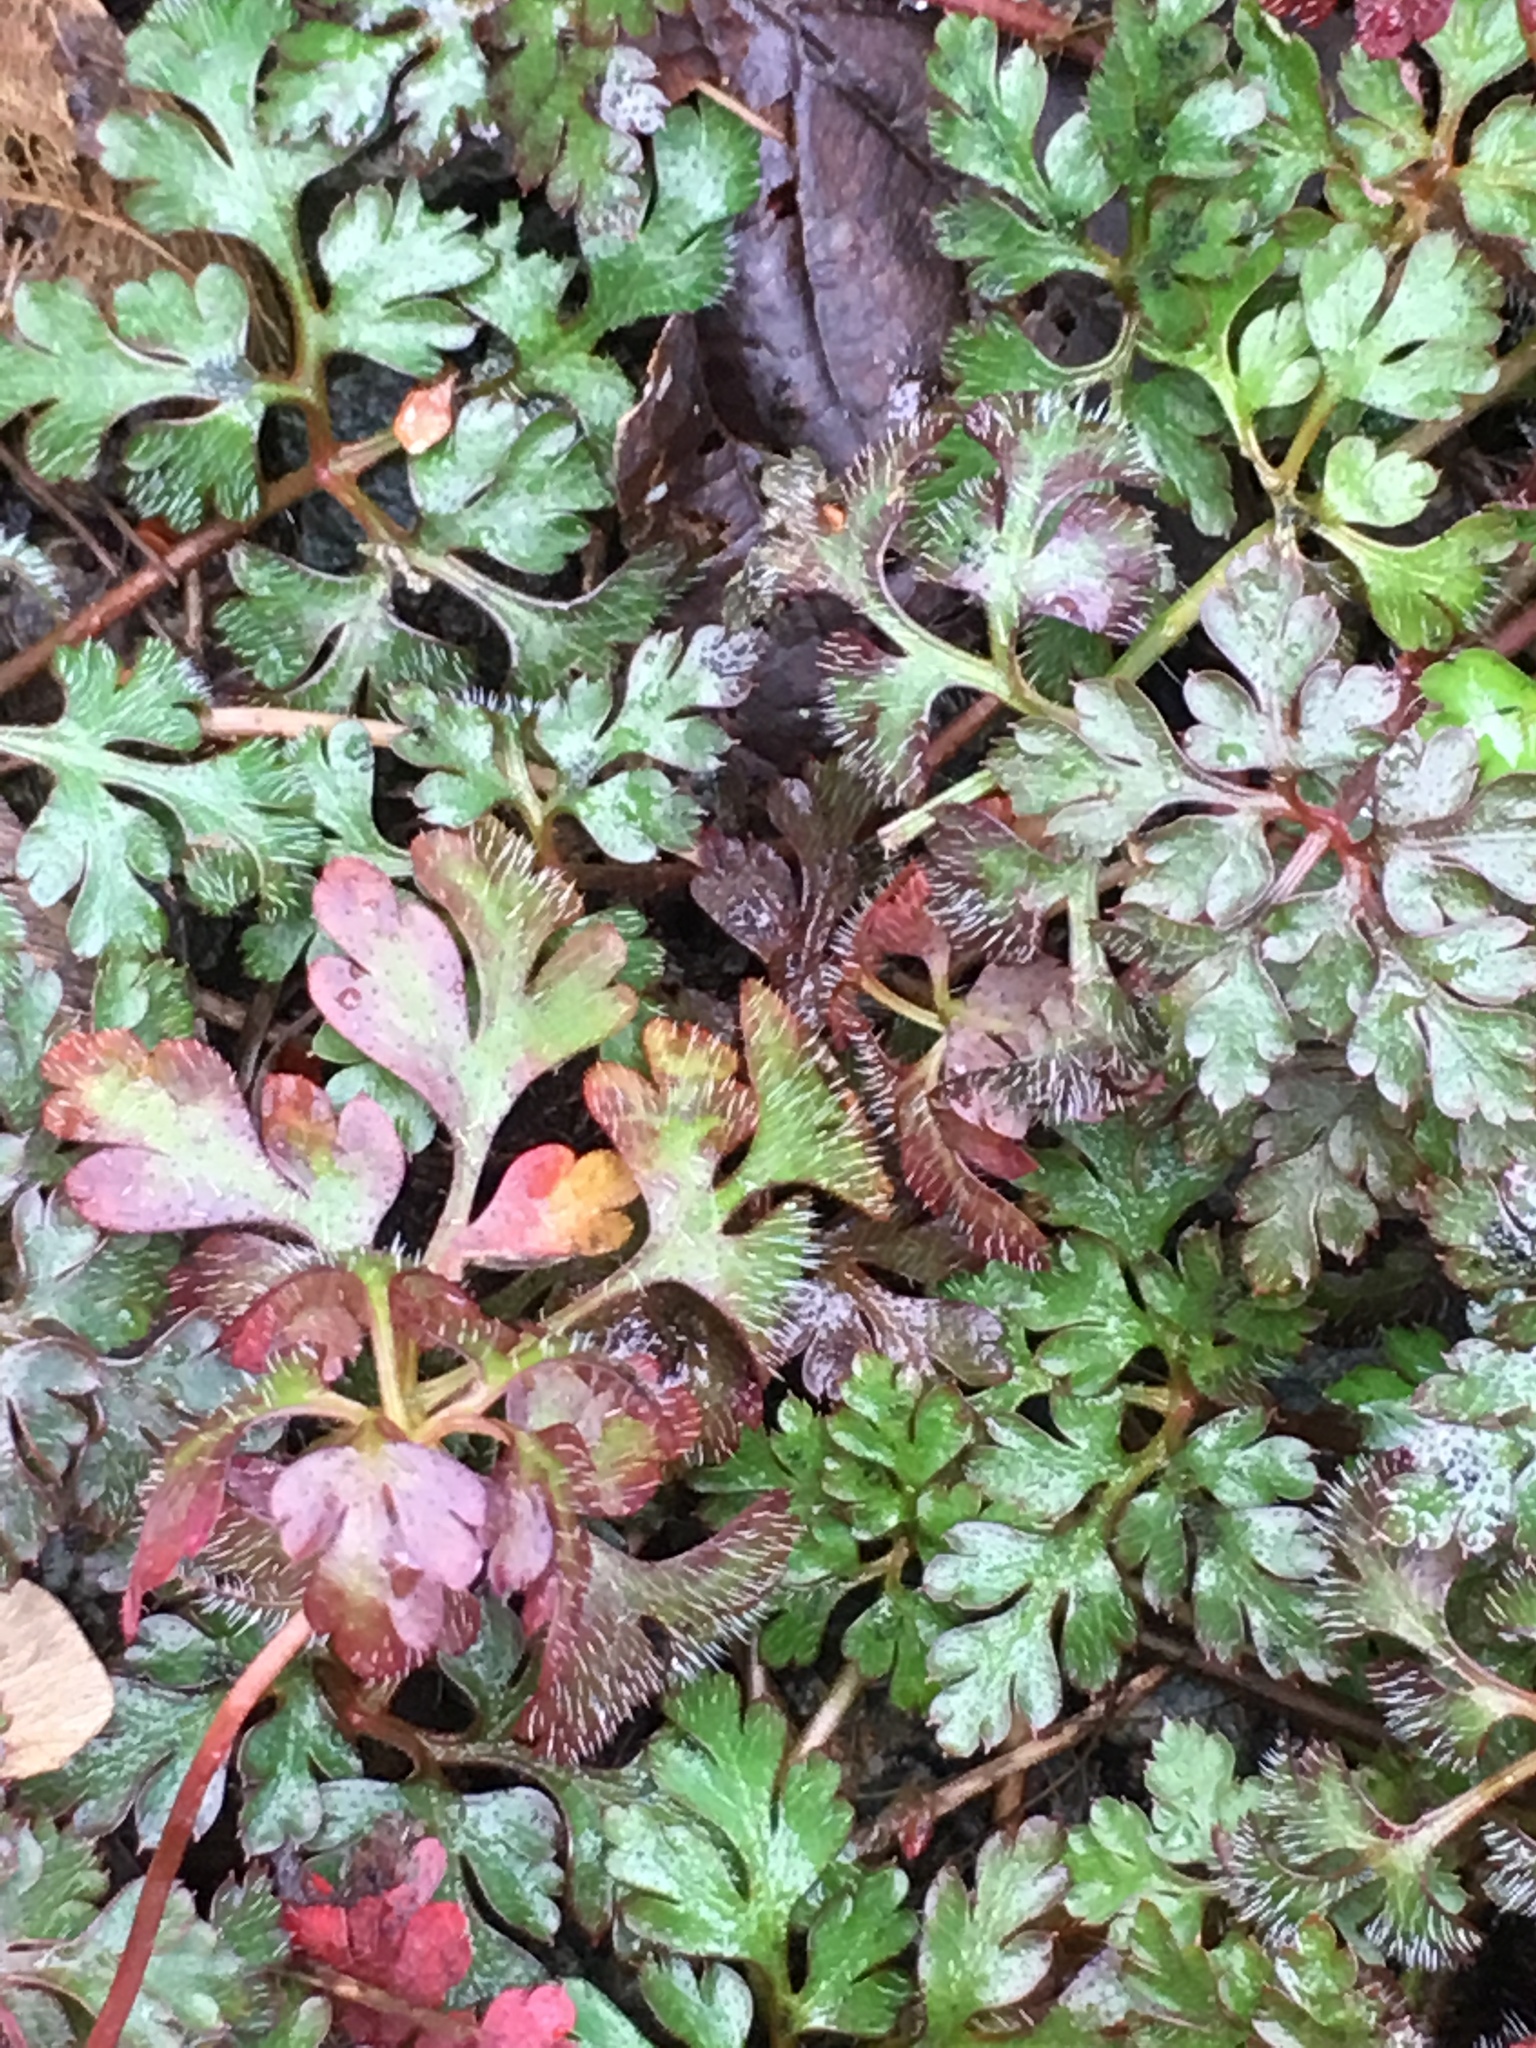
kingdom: Plantae
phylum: Tracheophyta
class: Magnoliopsida
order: Geraniales
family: Geraniaceae
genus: Geranium
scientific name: Geranium robertianum
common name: Herb-robert
